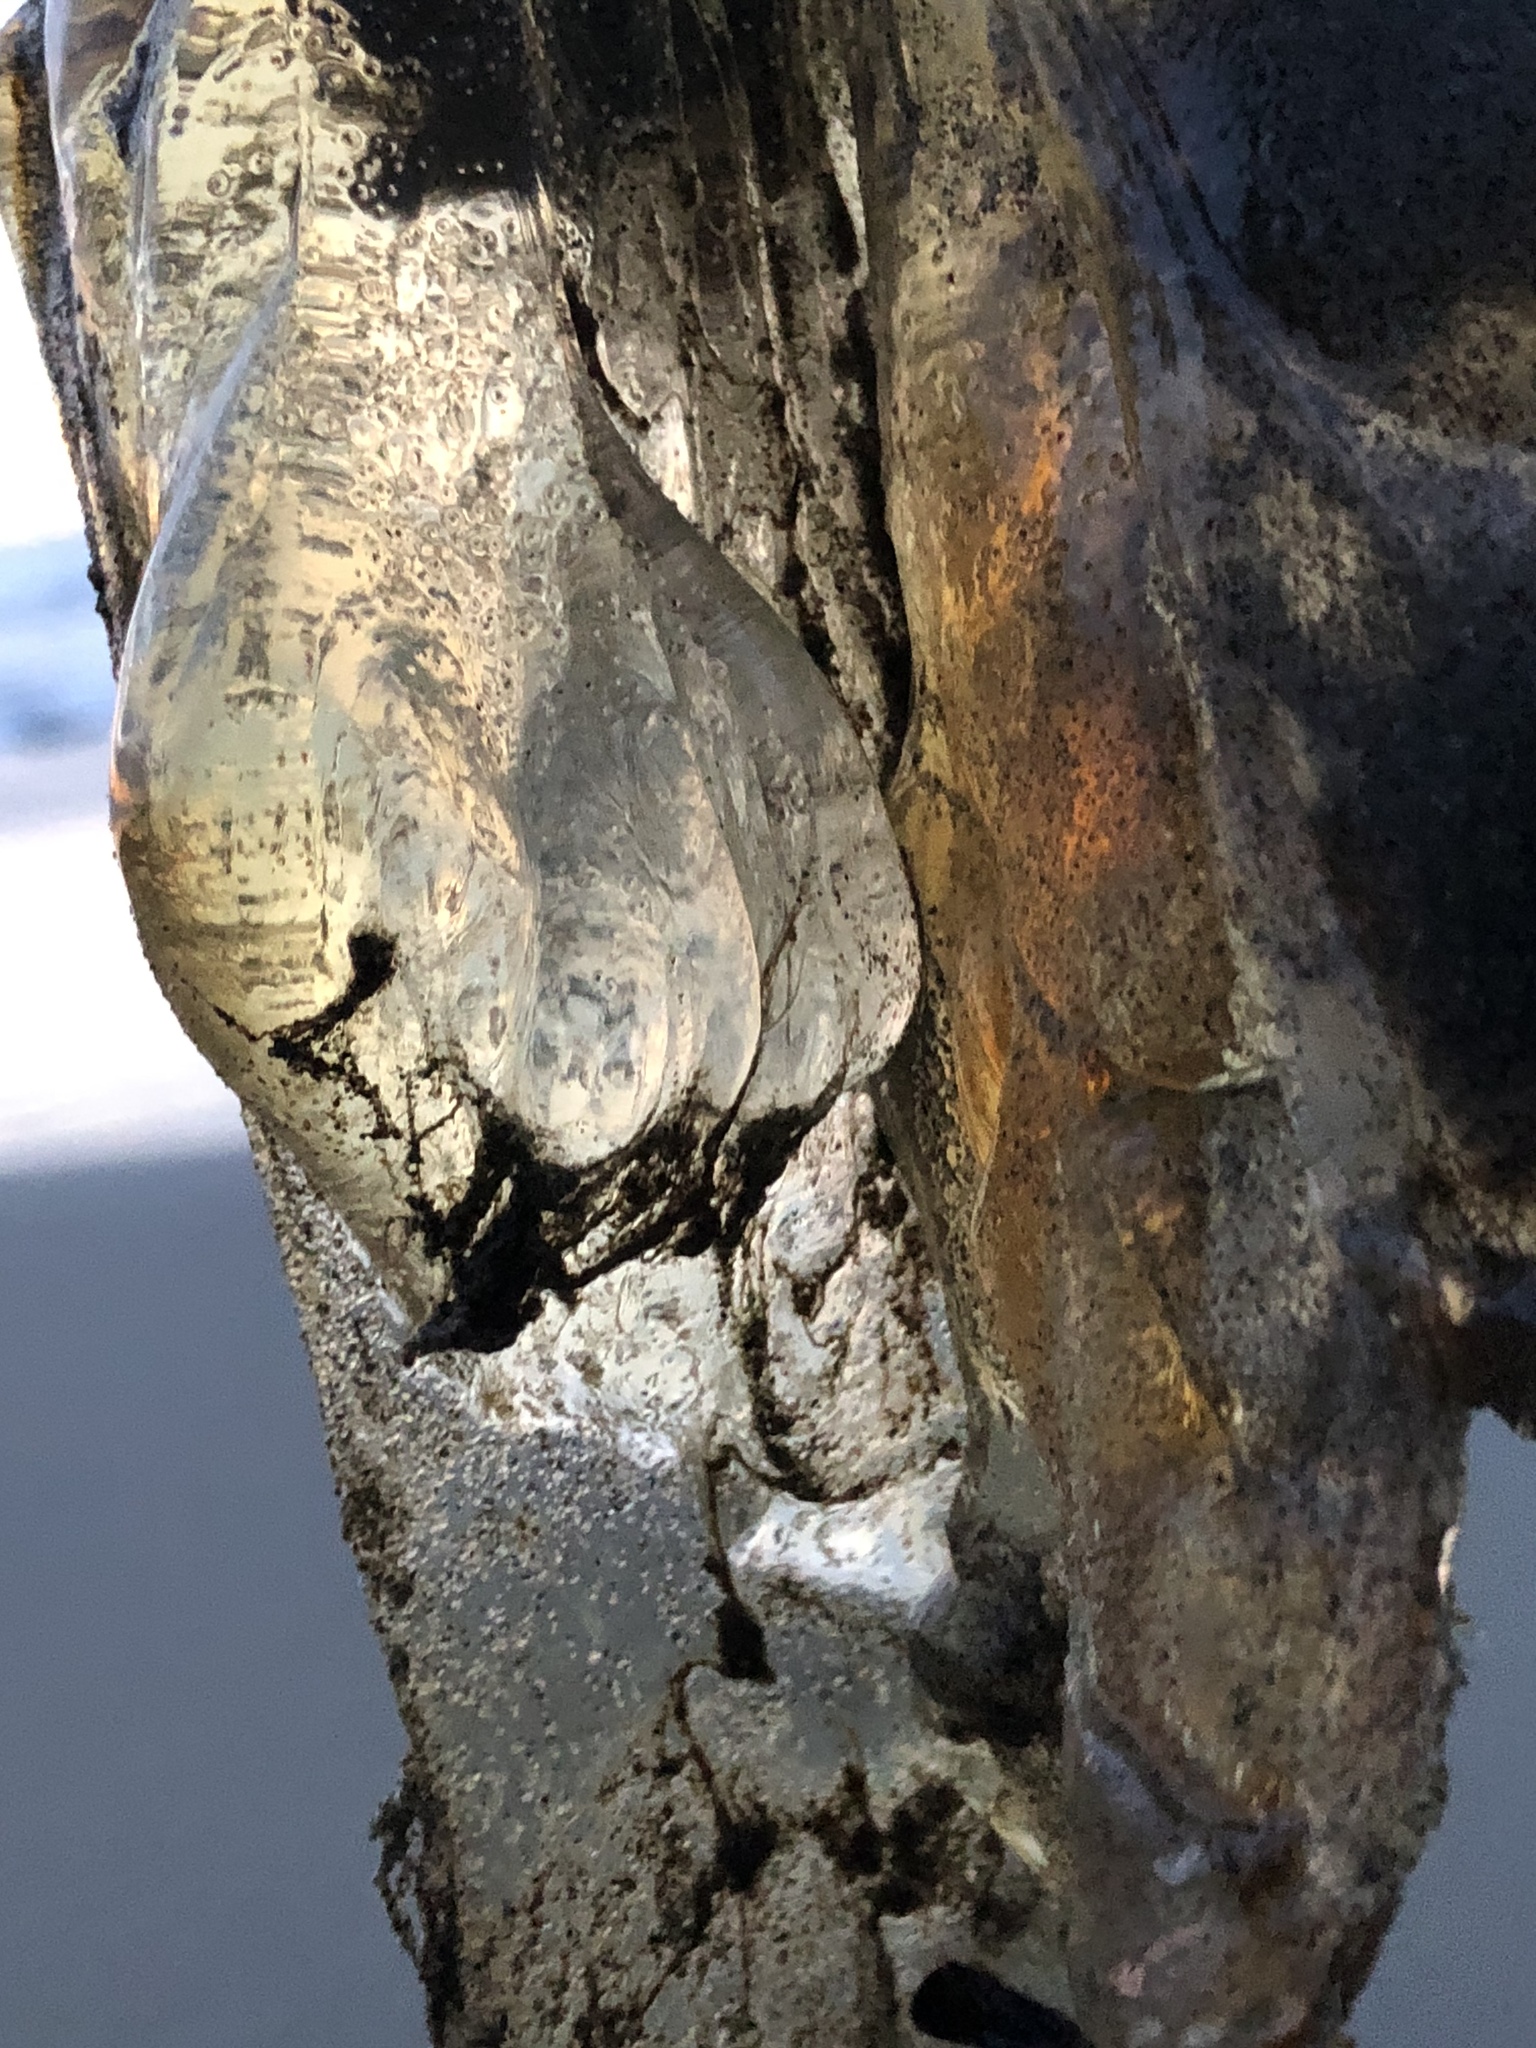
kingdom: Animalia
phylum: Cnidaria
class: Scyphozoa
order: Semaeostomeae
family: Pelagiidae
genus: Chrysaora
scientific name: Chrysaora fuscescens
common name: Sea nettle
